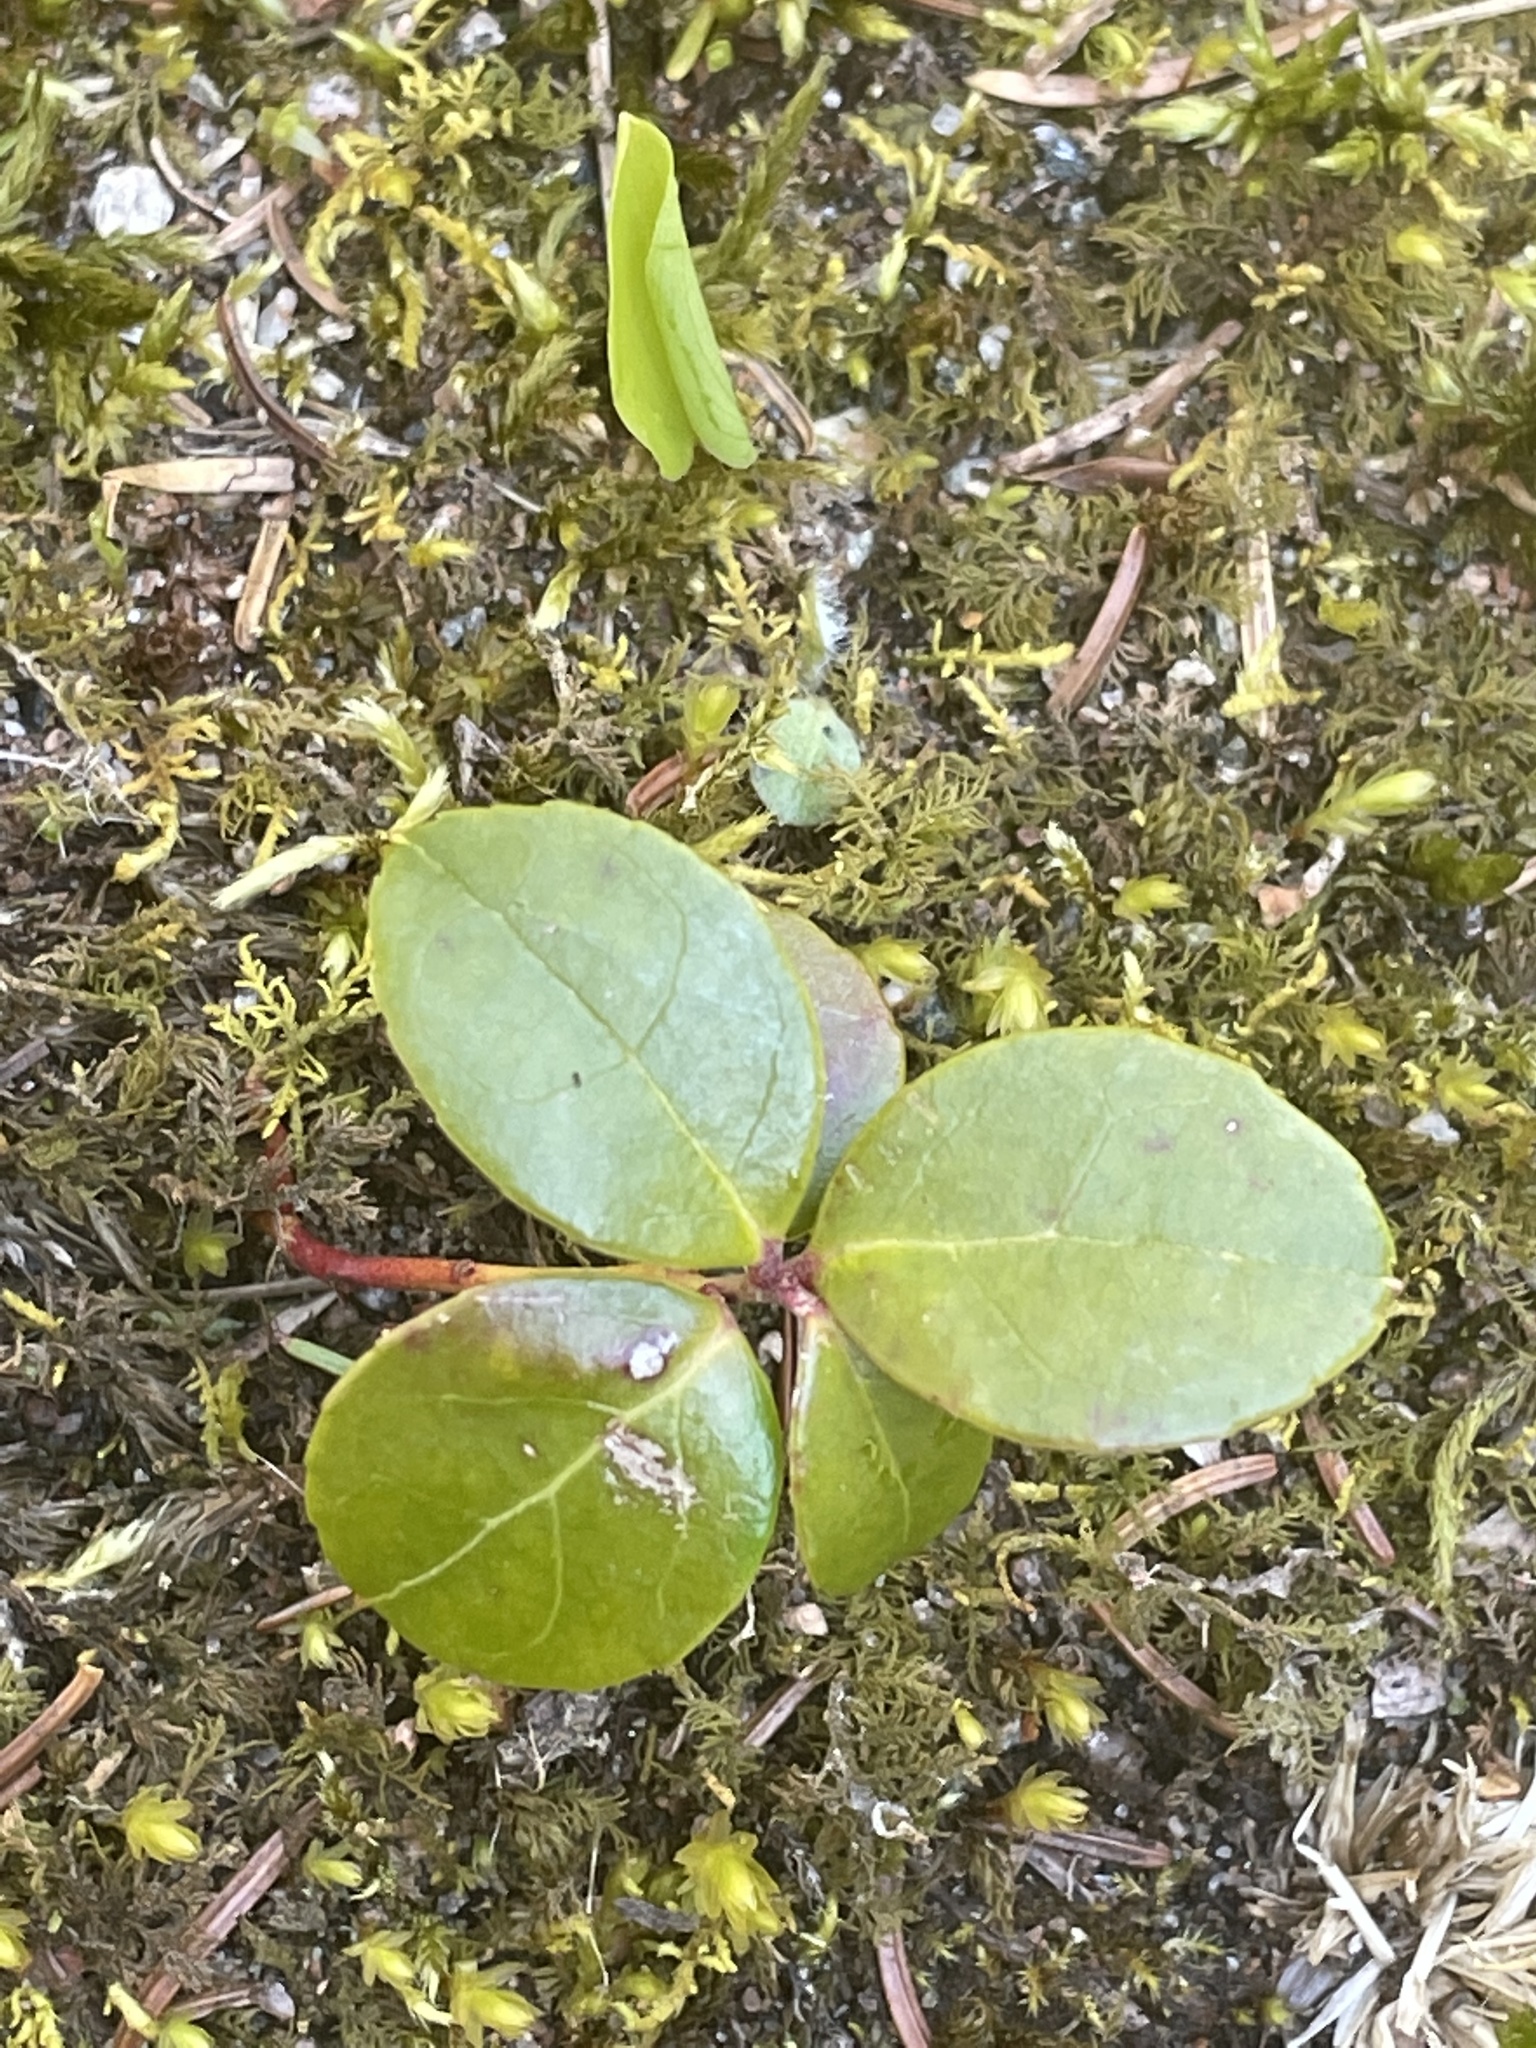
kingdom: Plantae
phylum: Tracheophyta
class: Magnoliopsida
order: Ericales
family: Ericaceae
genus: Gaultheria
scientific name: Gaultheria procumbens
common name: Checkerberry
